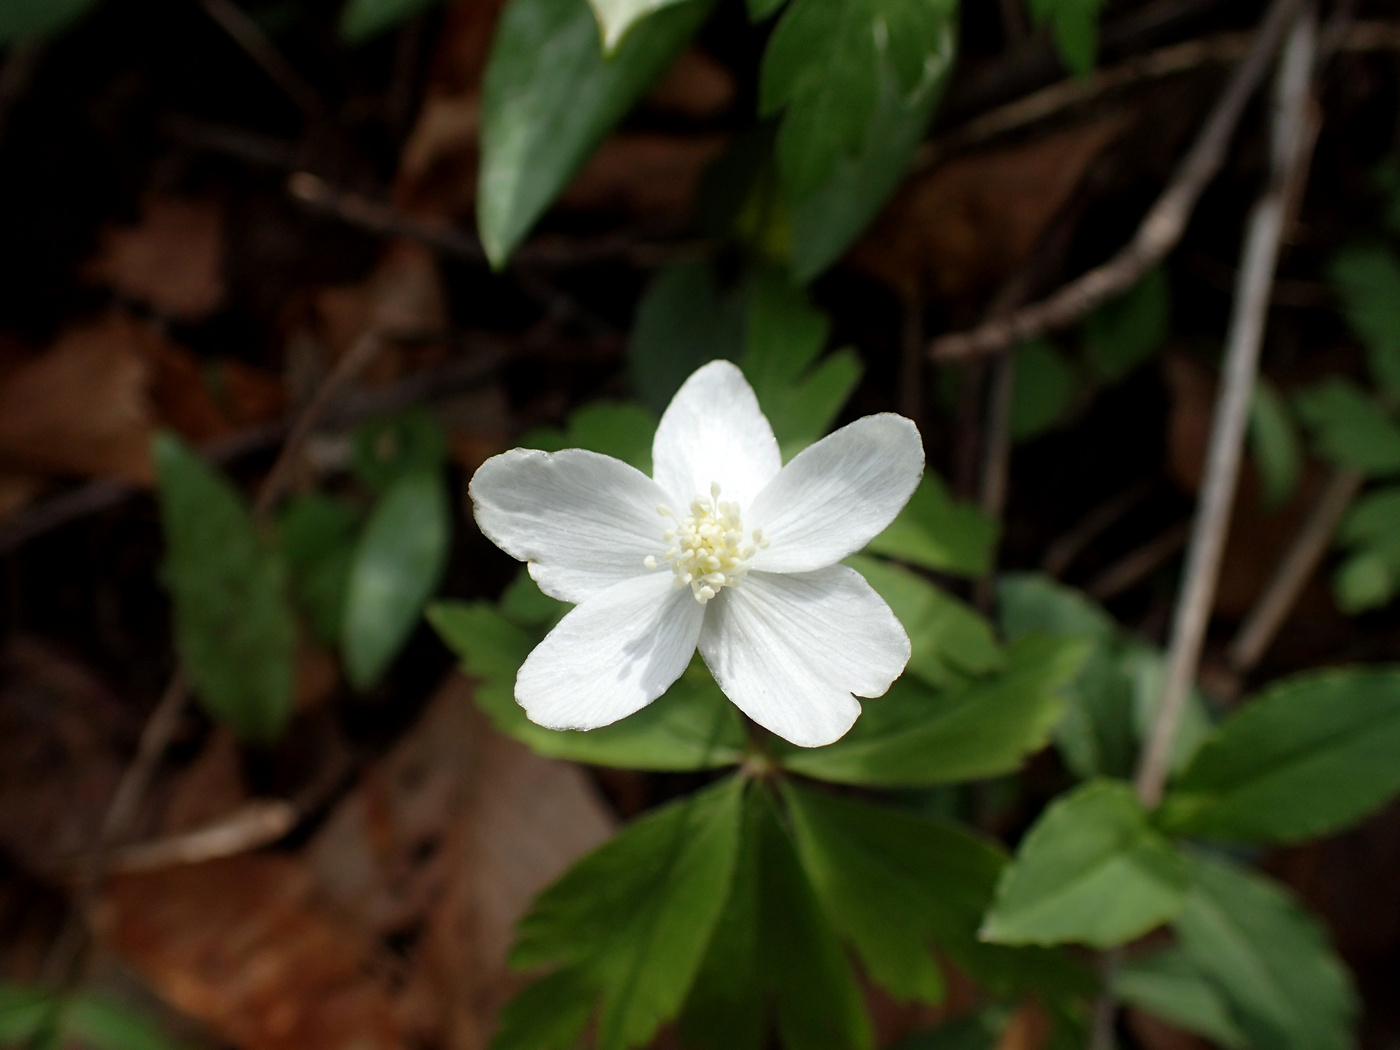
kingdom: Plantae
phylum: Tracheophyta
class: Magnoliopsida
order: Ranunculales
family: Ranunculaceae
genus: Anemone
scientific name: Anemone quinquefolia
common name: Wood anemone
